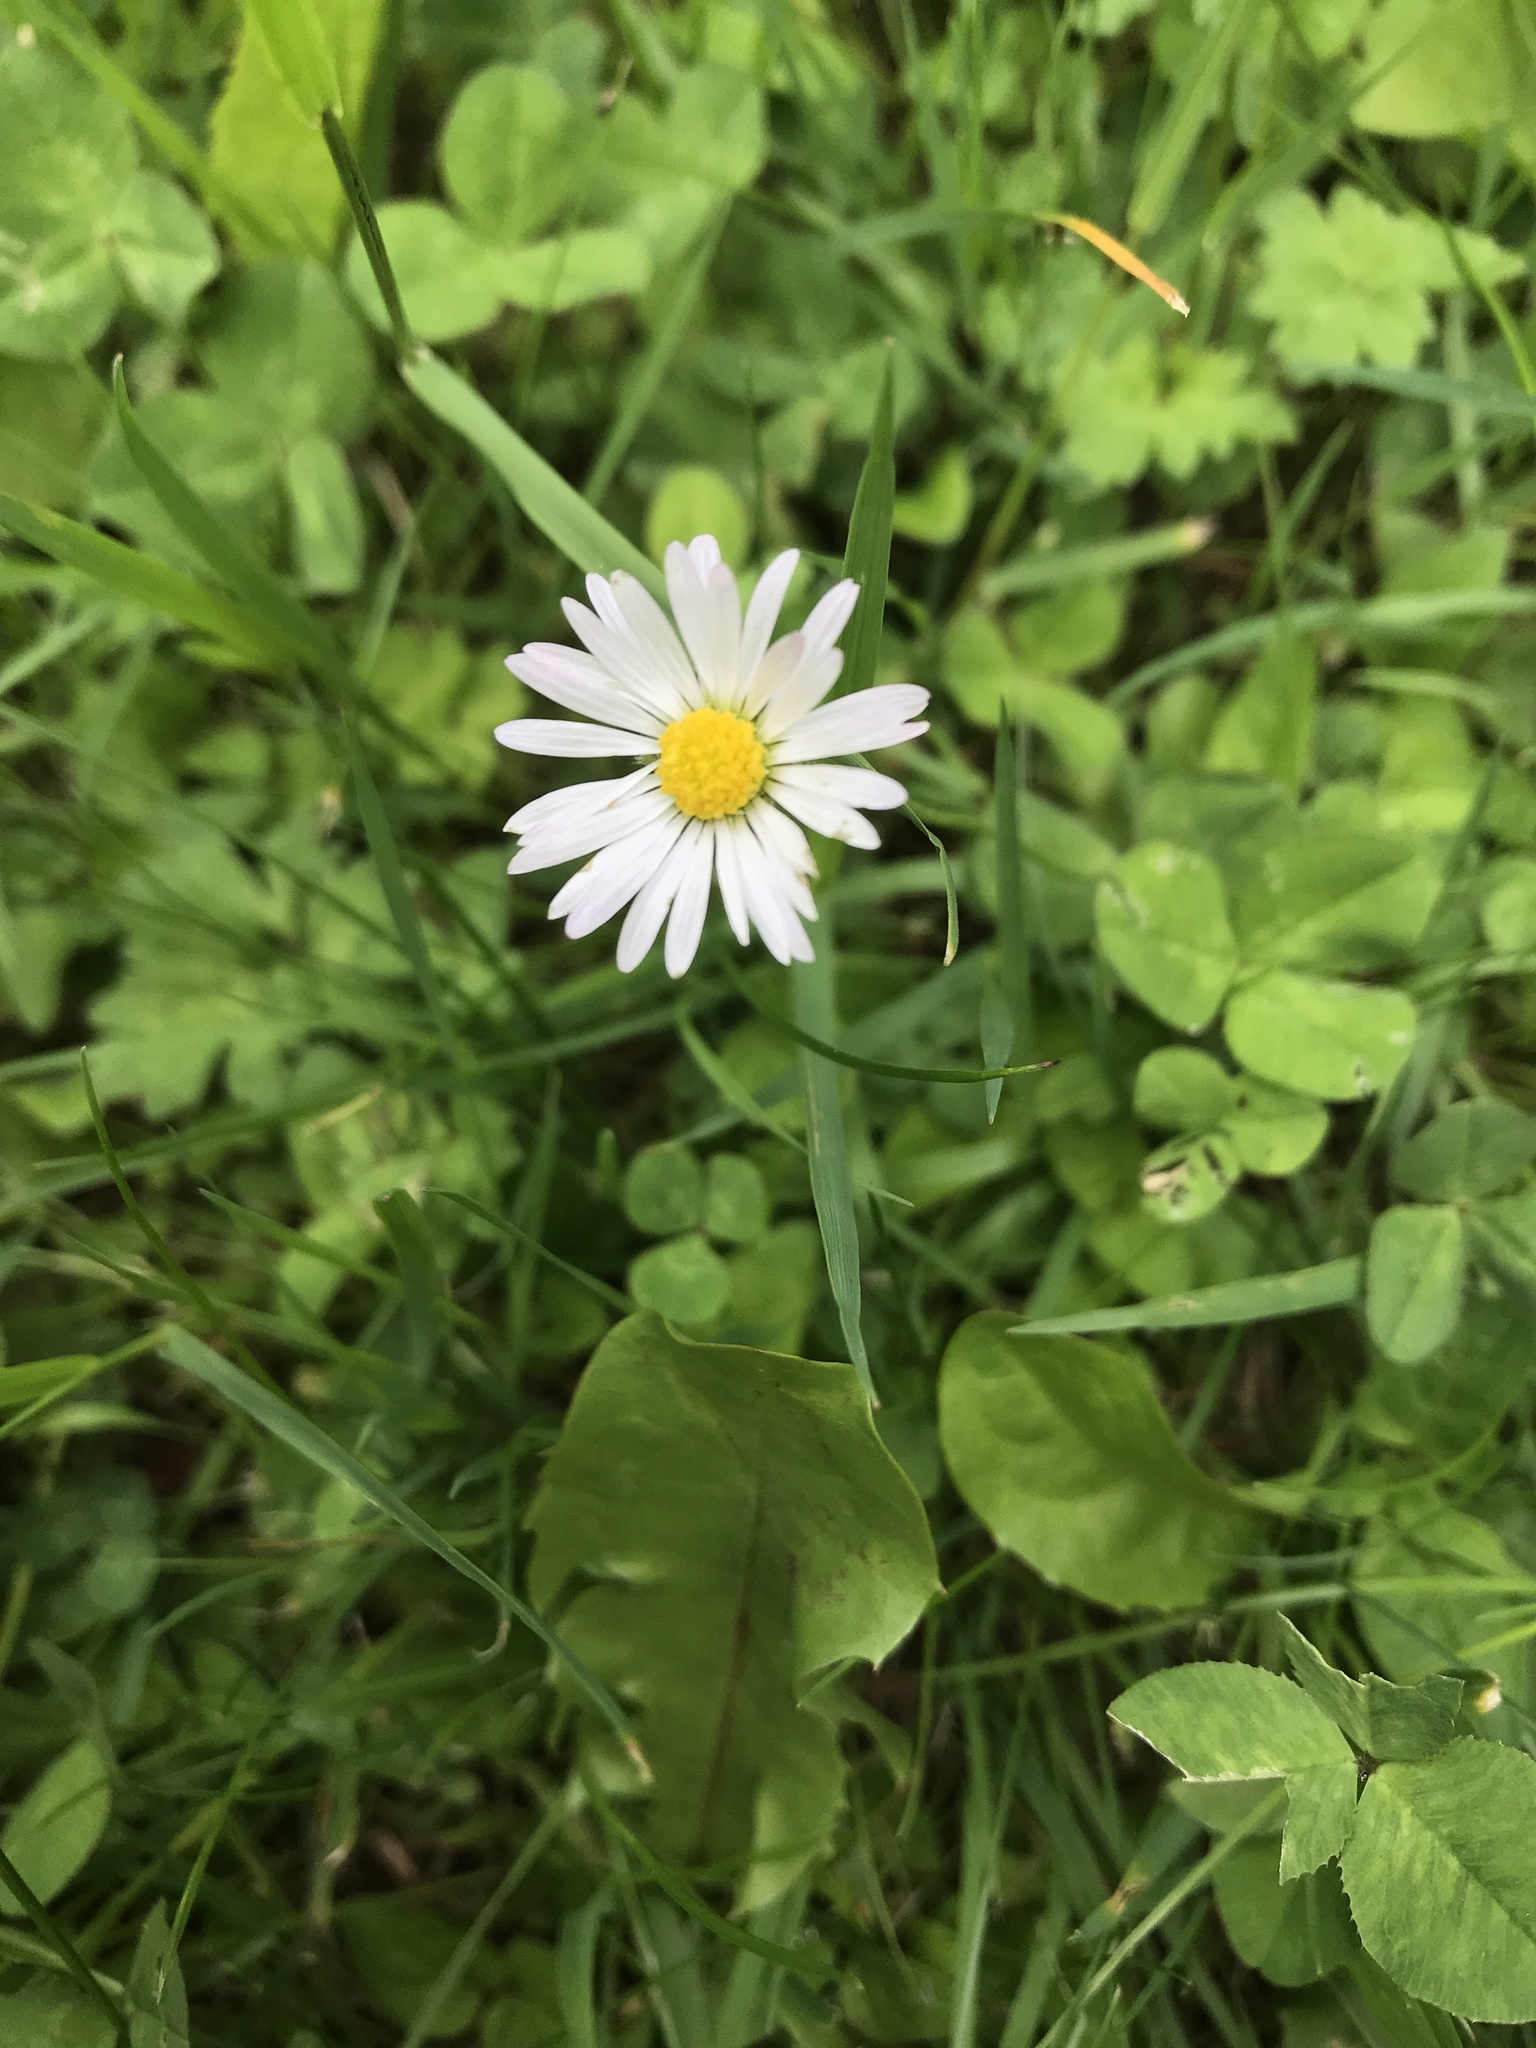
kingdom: Plantae
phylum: Tracheophyta
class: Magnoliopsida
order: Asterales
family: Asteraceae
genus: Bellis
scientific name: Bellis perennis
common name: Lawndaisy
